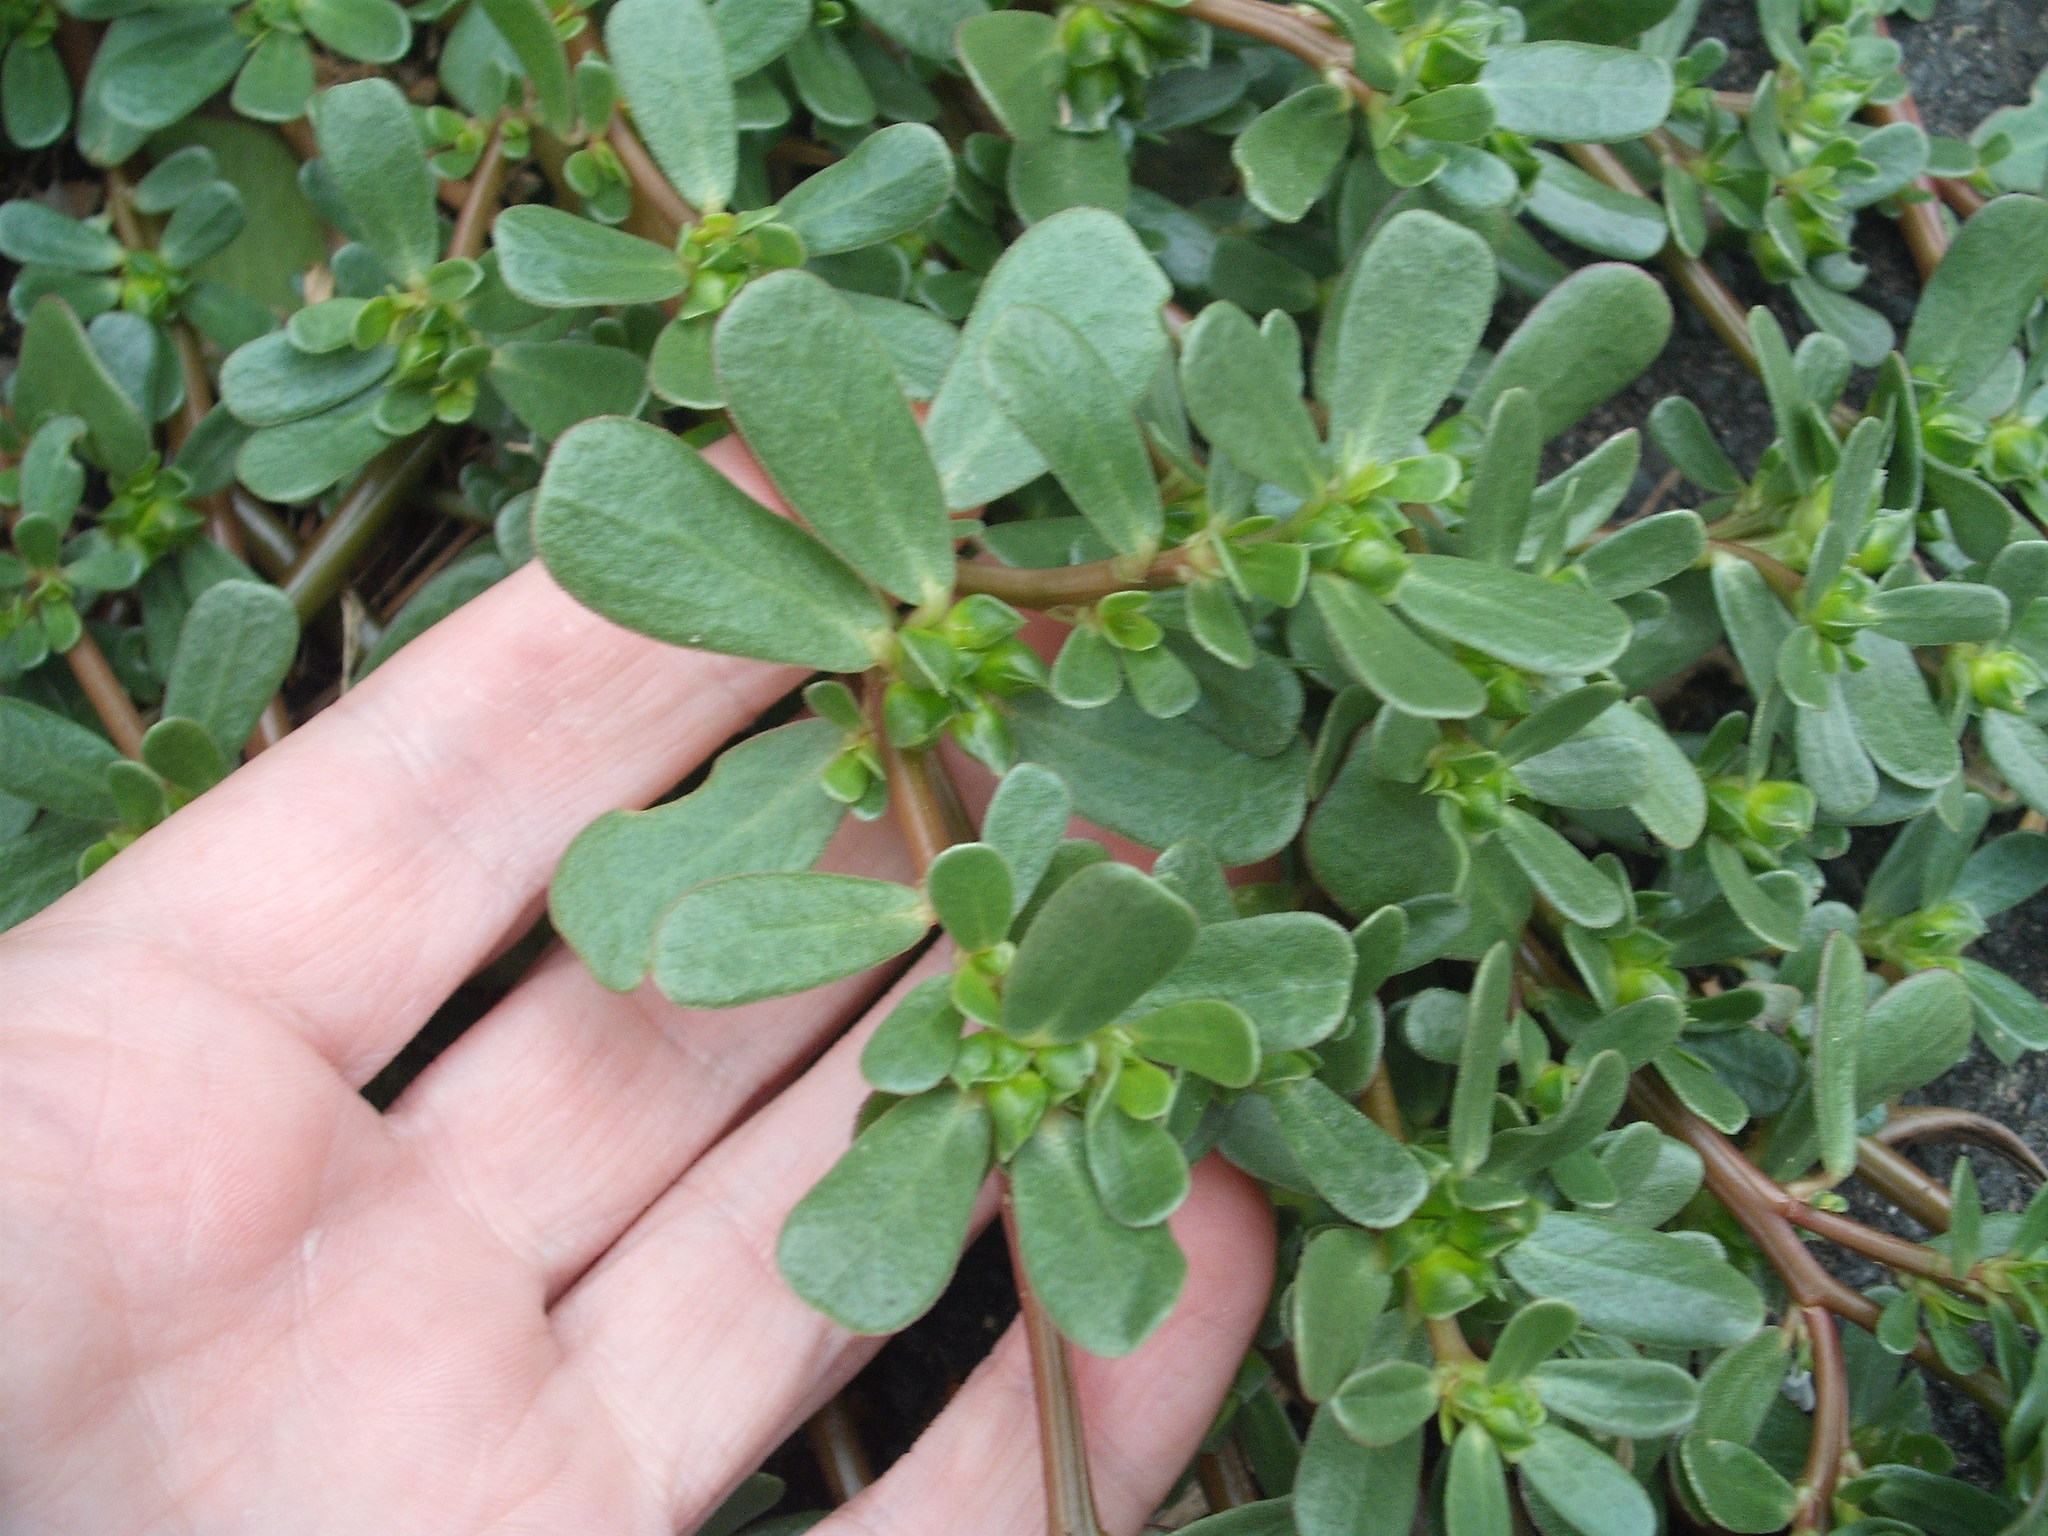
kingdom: Plantae
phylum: Tracheophyta
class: Magnoliopsida
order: Caryophyllales
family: Portulacaceae
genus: Portulaca
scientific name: Portulaca oleracea
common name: Common purslane
